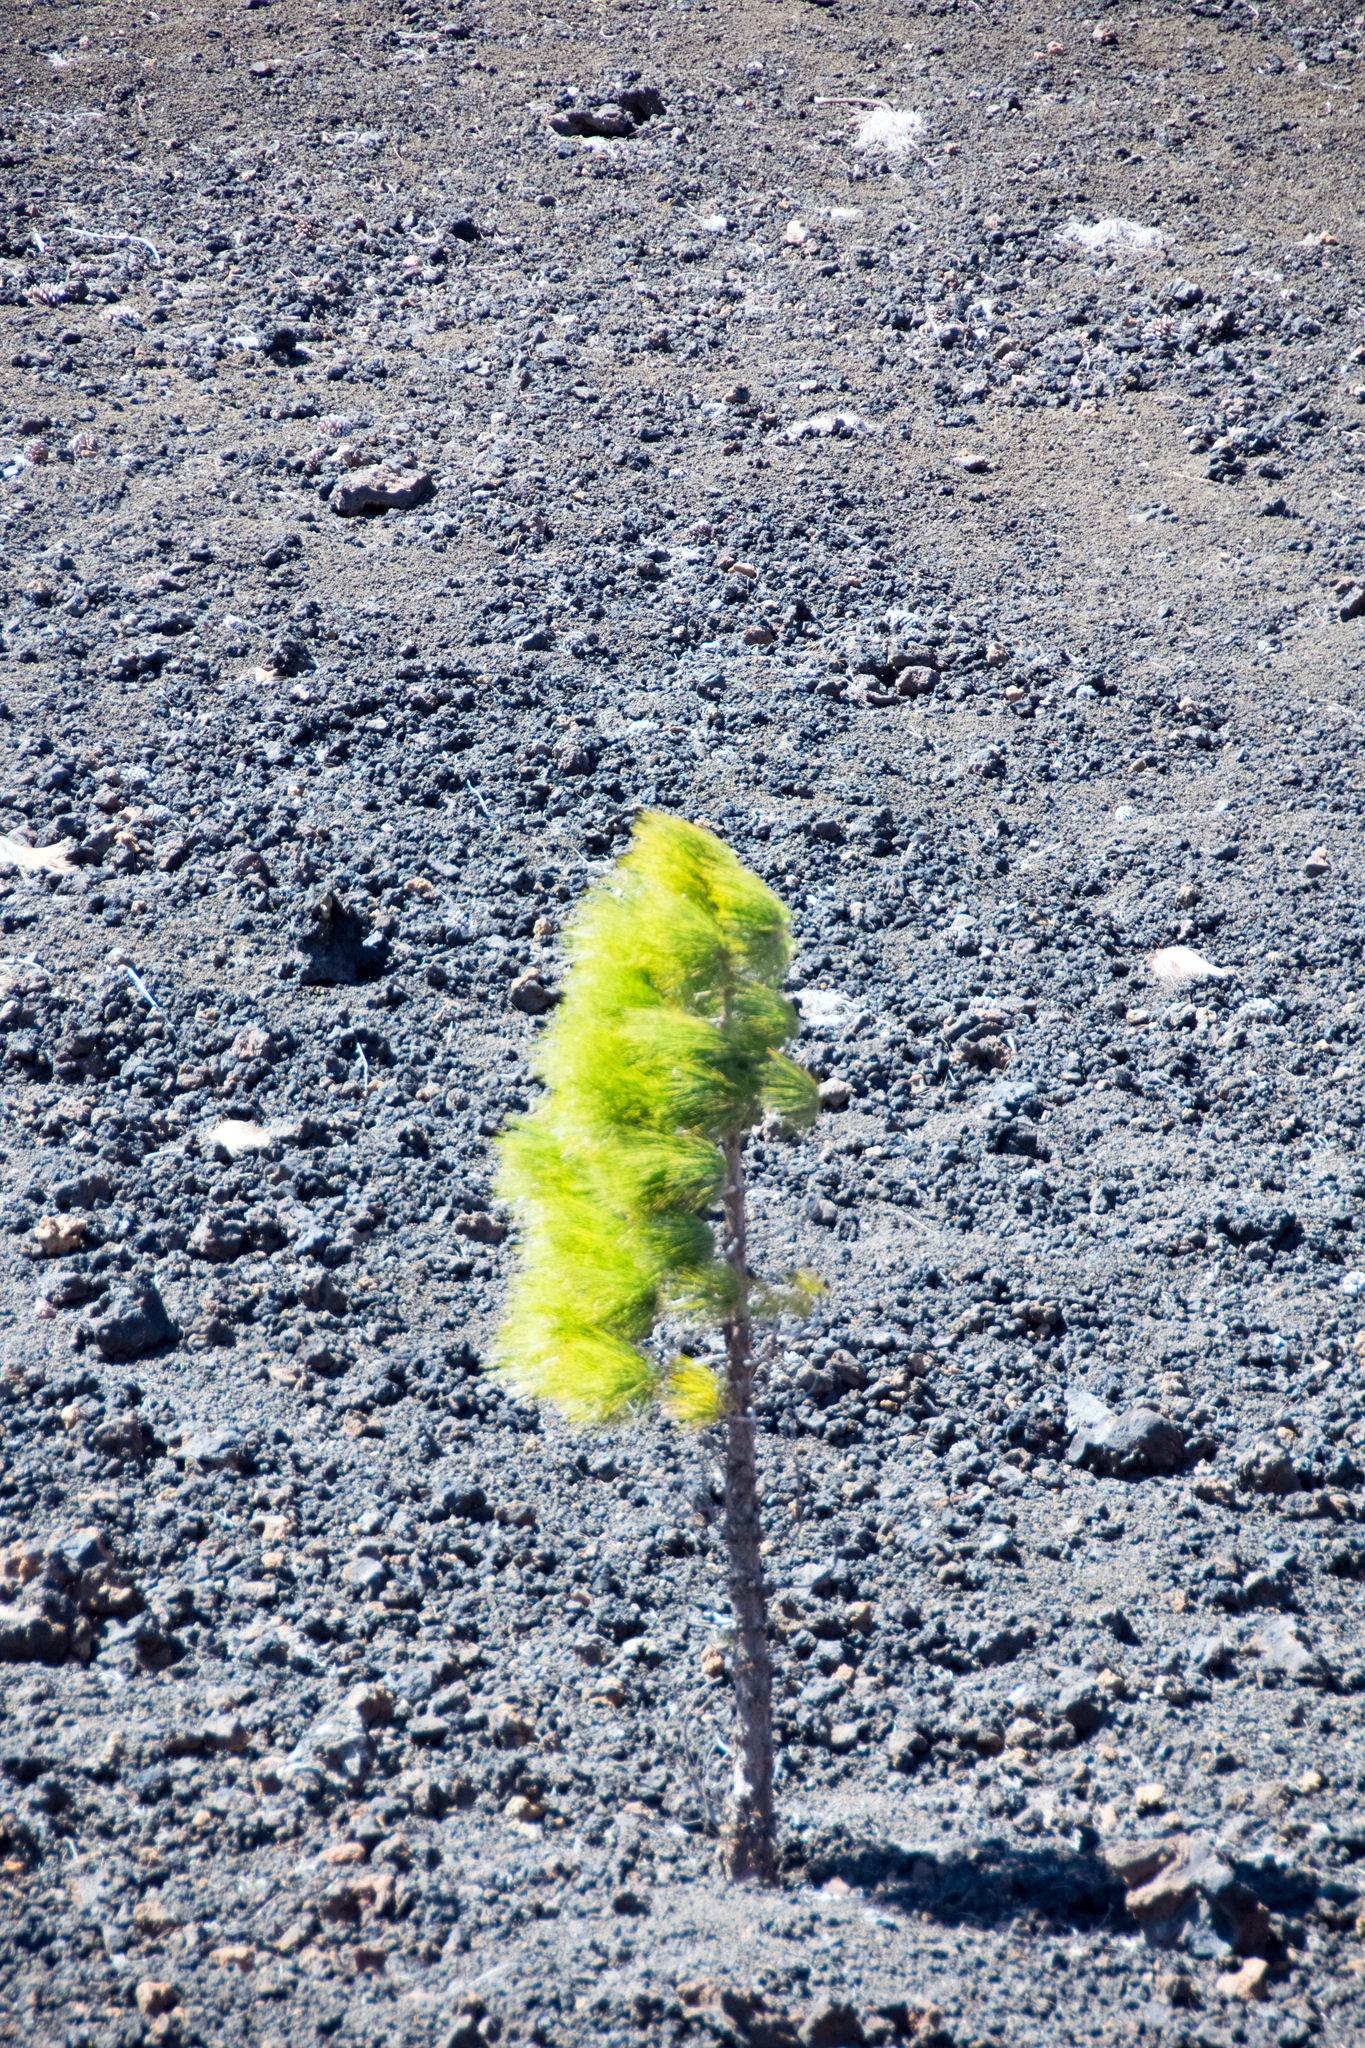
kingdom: Plantae
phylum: Tracheophyta
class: Pinopsida
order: Pinales
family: Pinaceae
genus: Pinus
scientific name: Pinus canariensis
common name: Canary islands pine
